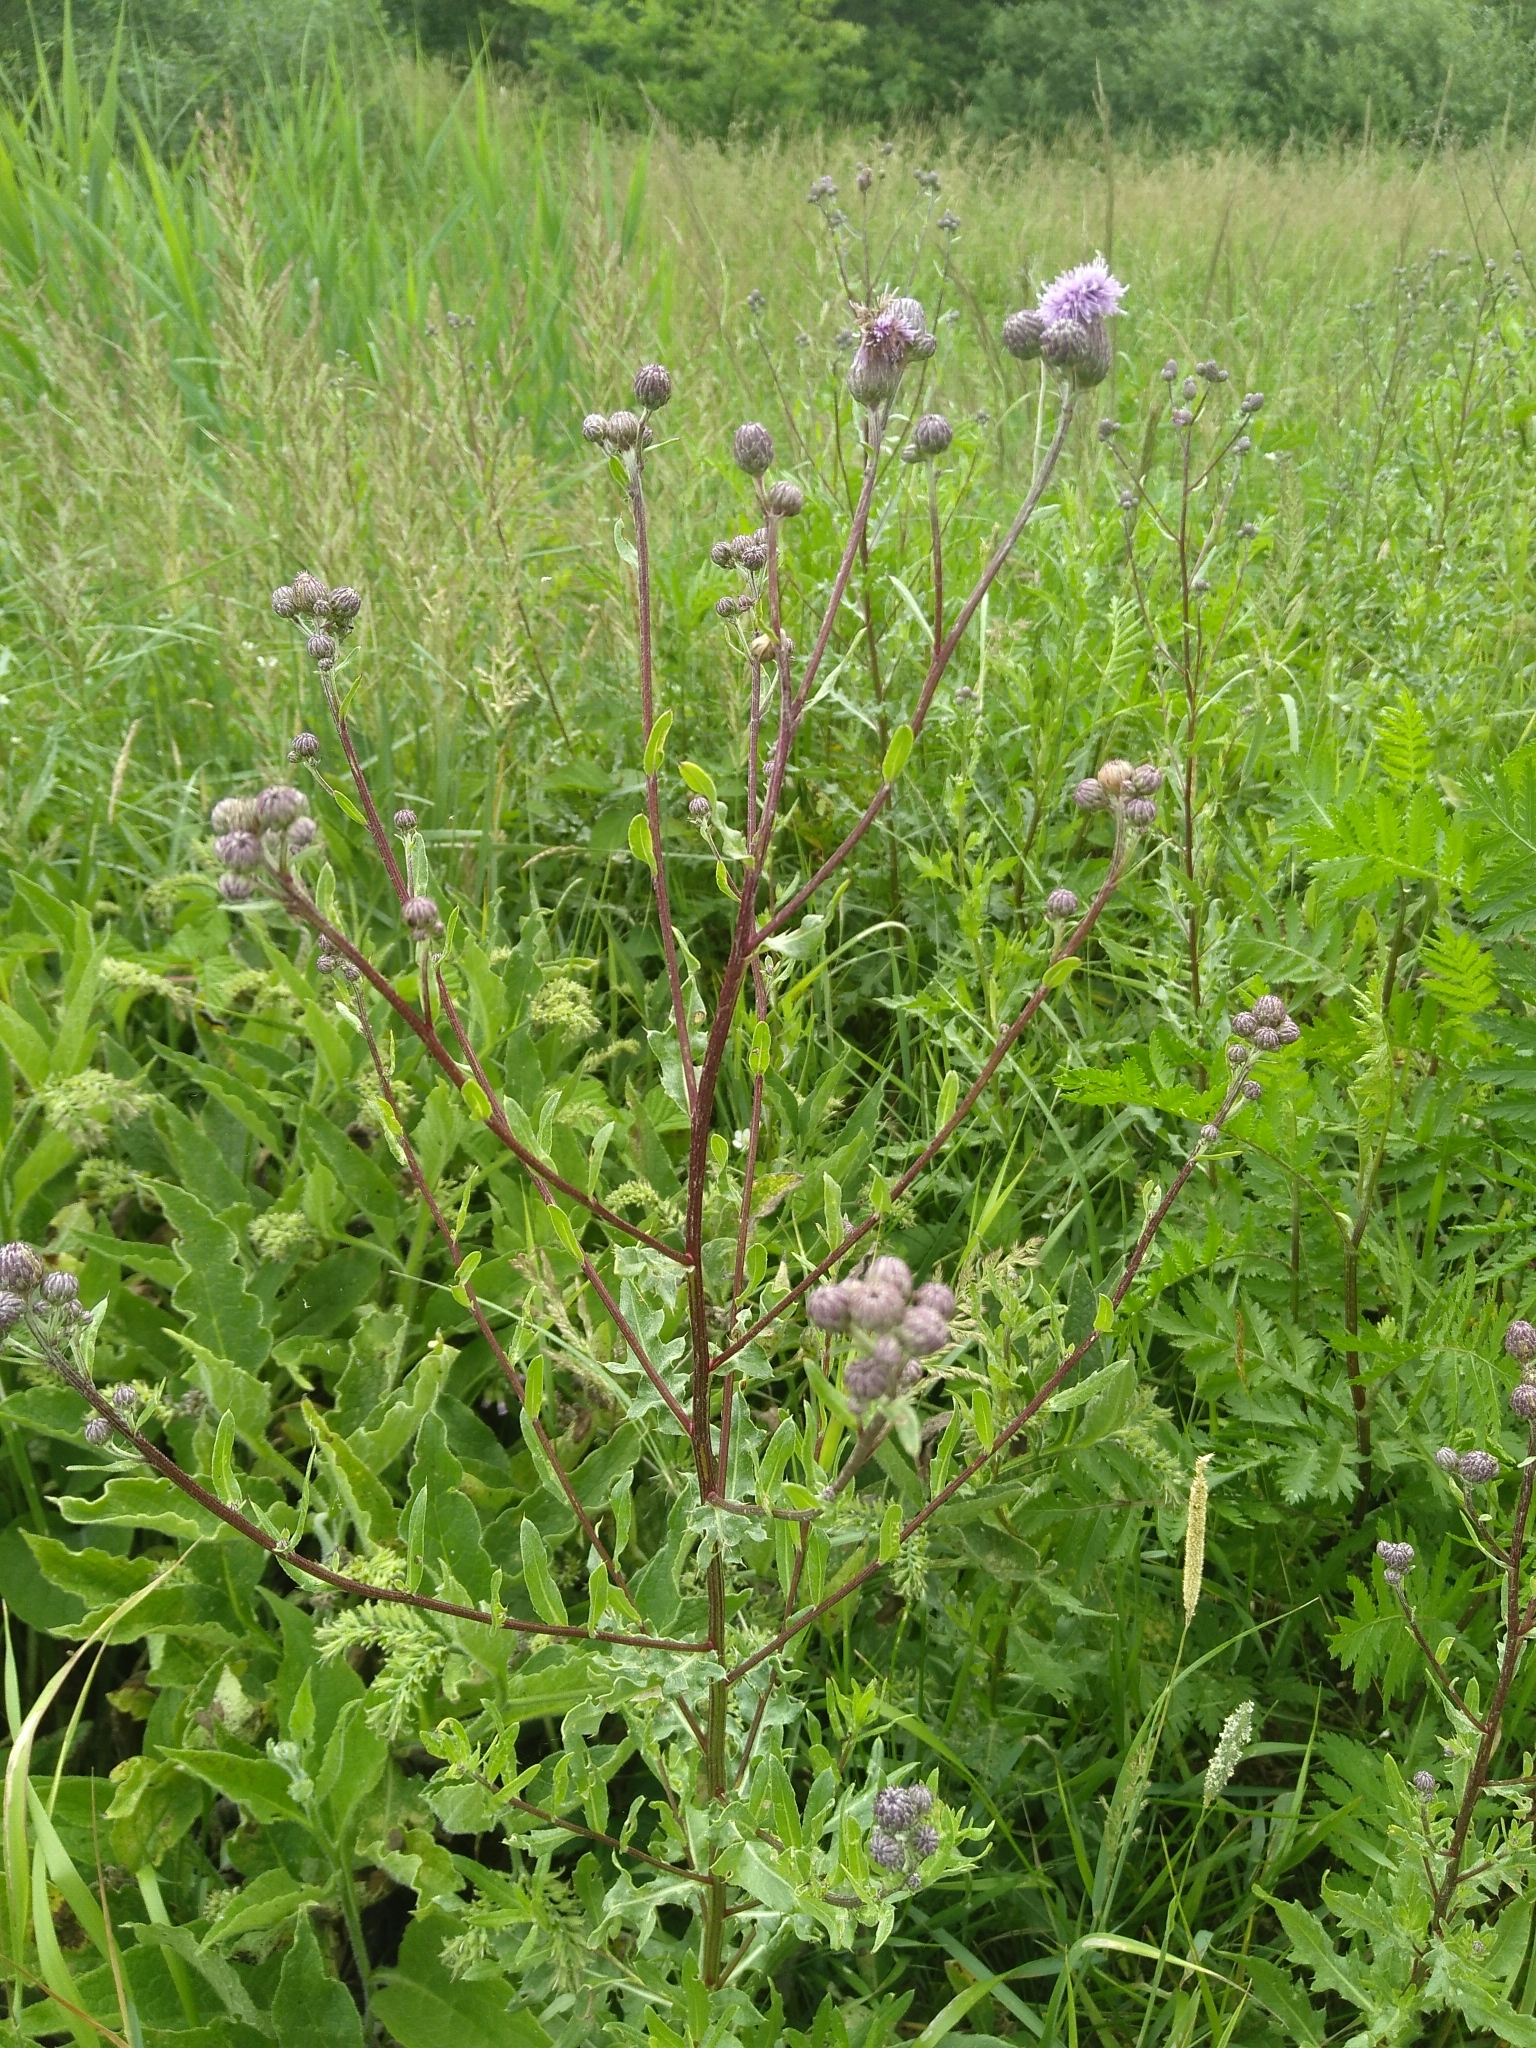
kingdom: Plantae
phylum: Tracheophyta
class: Magnoliopsida
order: Asterales
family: Asteraceae
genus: Cirsium
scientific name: Cirsium arvense
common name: Creeping thistle
